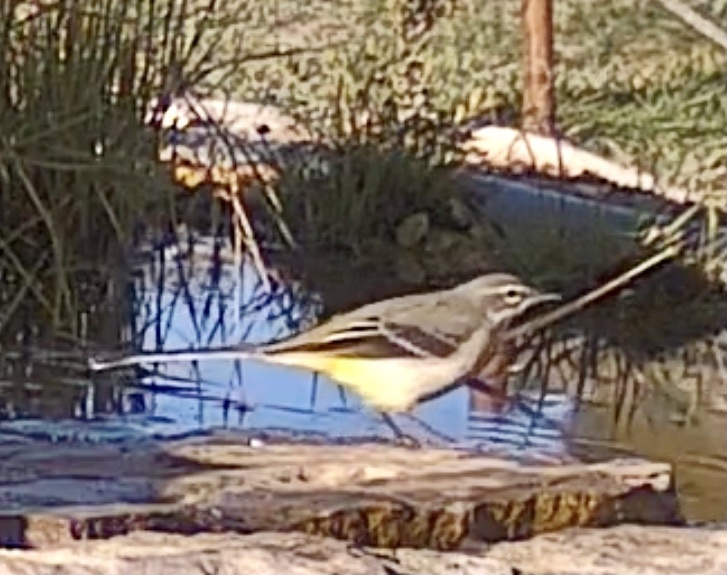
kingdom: Animalia
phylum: Chordata
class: Aves
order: Passeriformes
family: Motacillidae
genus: Motacilla
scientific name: Motacilla cinerea
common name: Grey wagtail
